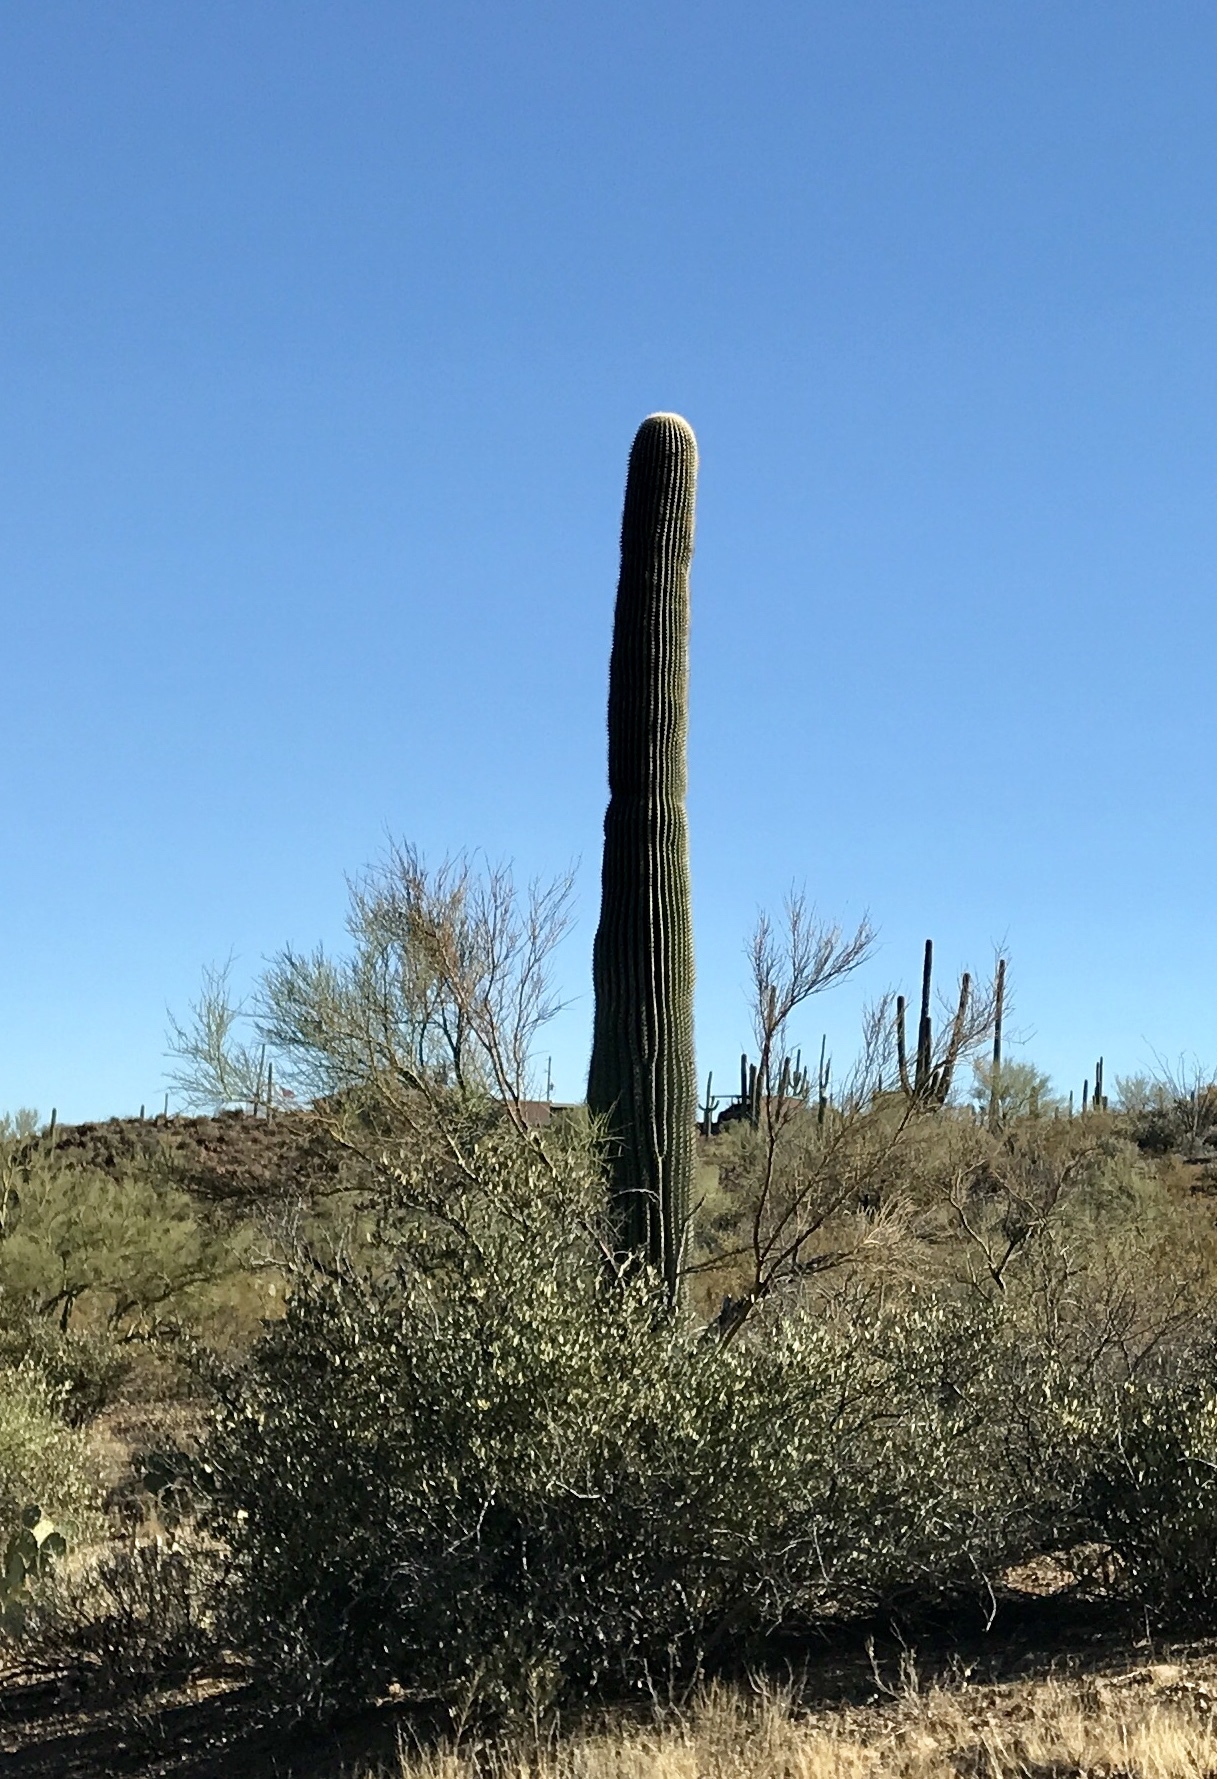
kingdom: Plantae
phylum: Tracheophyta
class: Magnoliopsida
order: Caryophyllales
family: Cactaceae
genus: Carnegiea
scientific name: Carnegiea gigantea
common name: Saguaro
